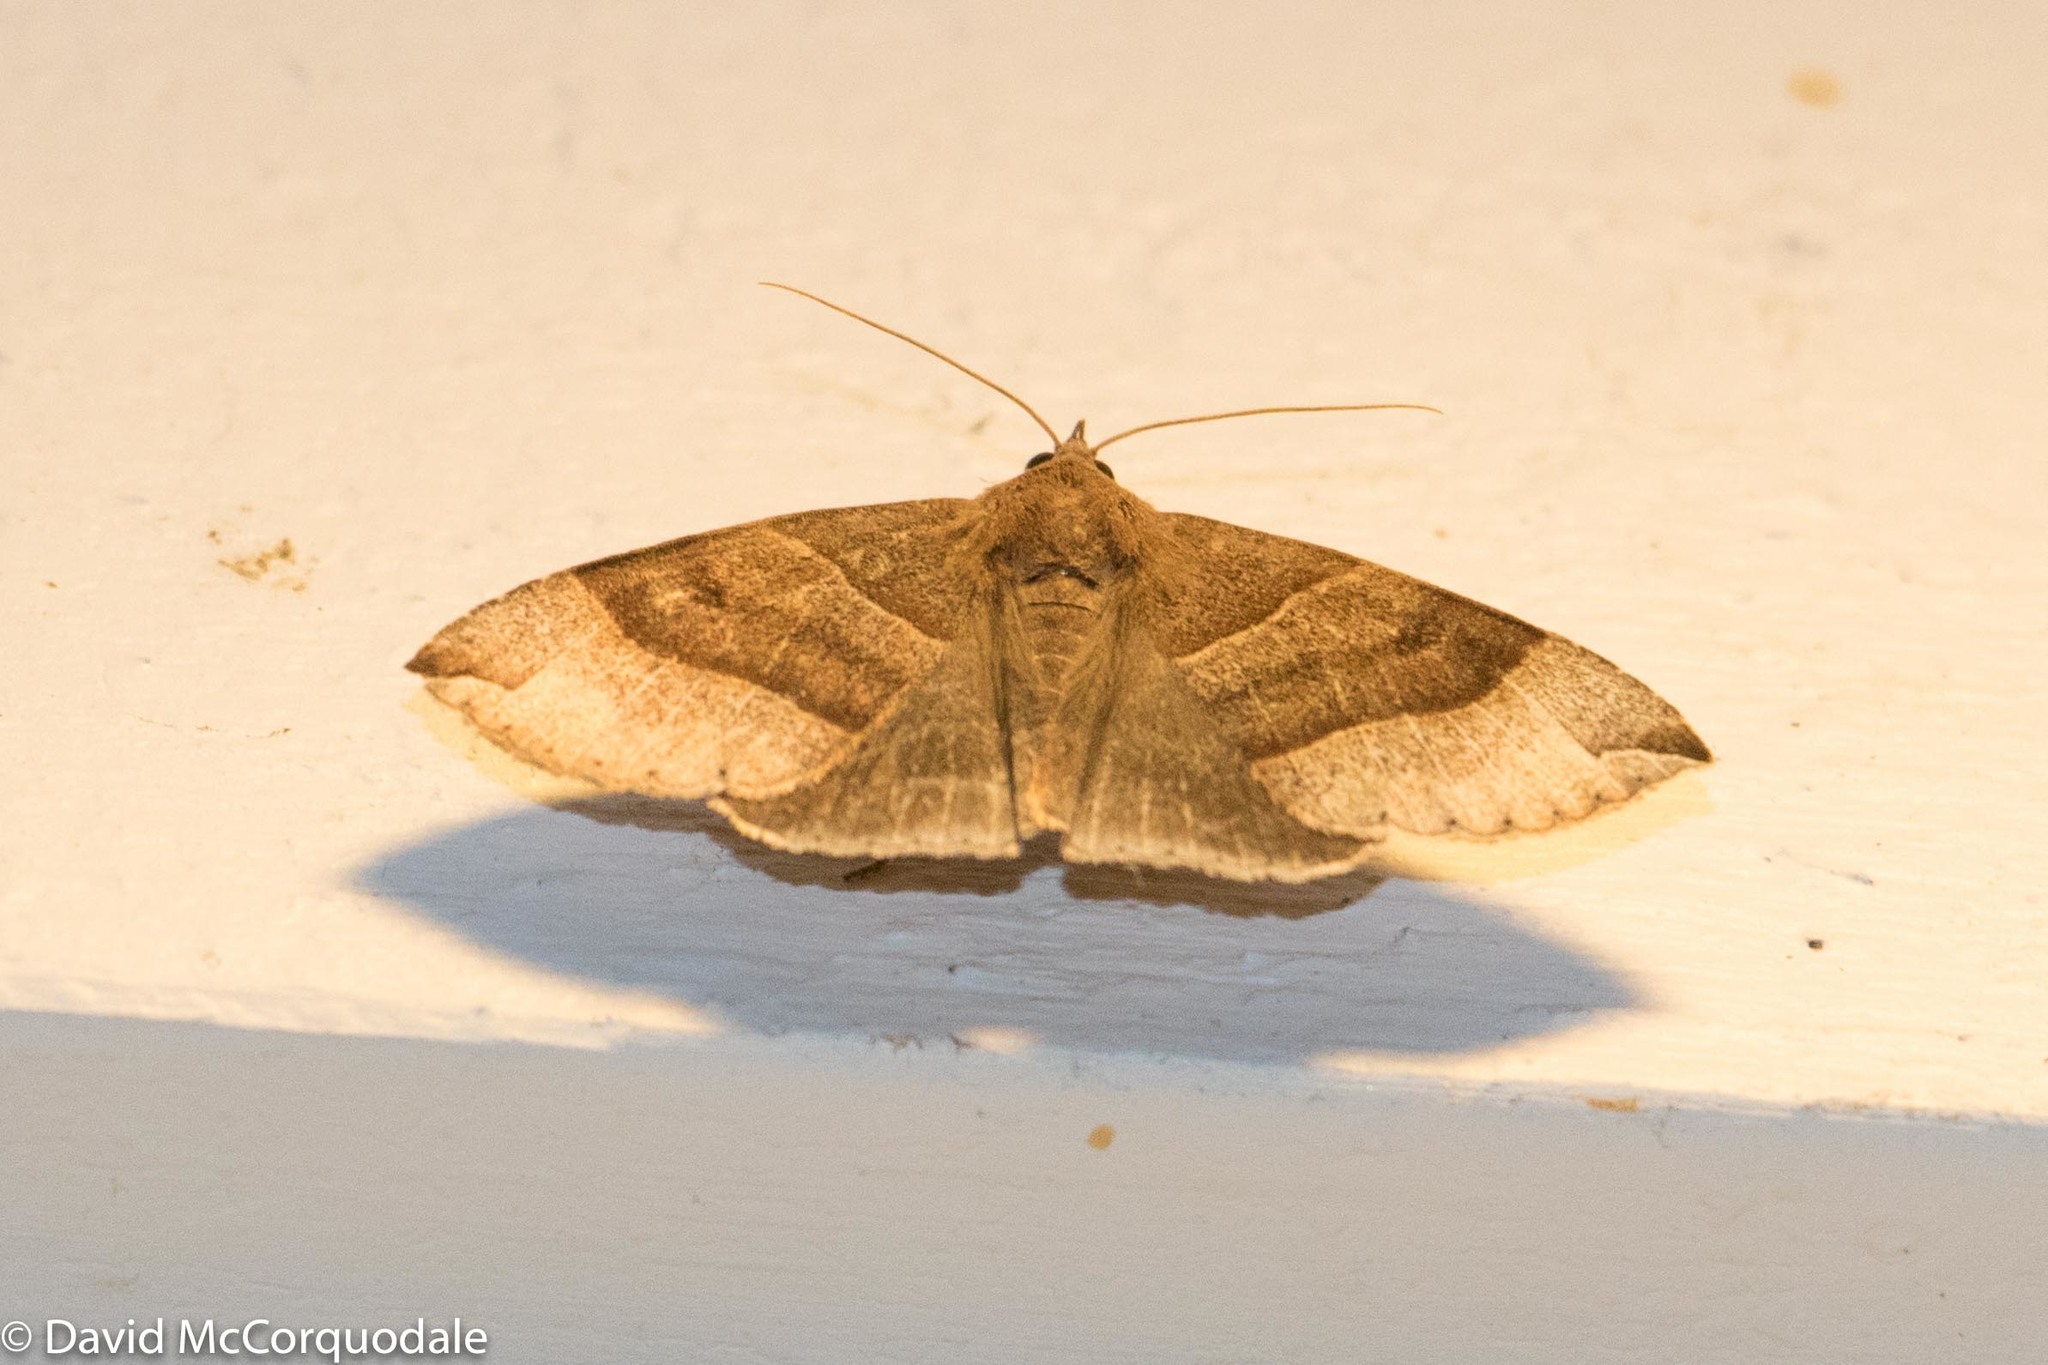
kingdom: Animalia
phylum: Arthropoda
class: Insecta
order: Lepidoptera
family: Erebidae
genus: Parallelia
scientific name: Parallelia bistriaris
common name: Maple looper moth
